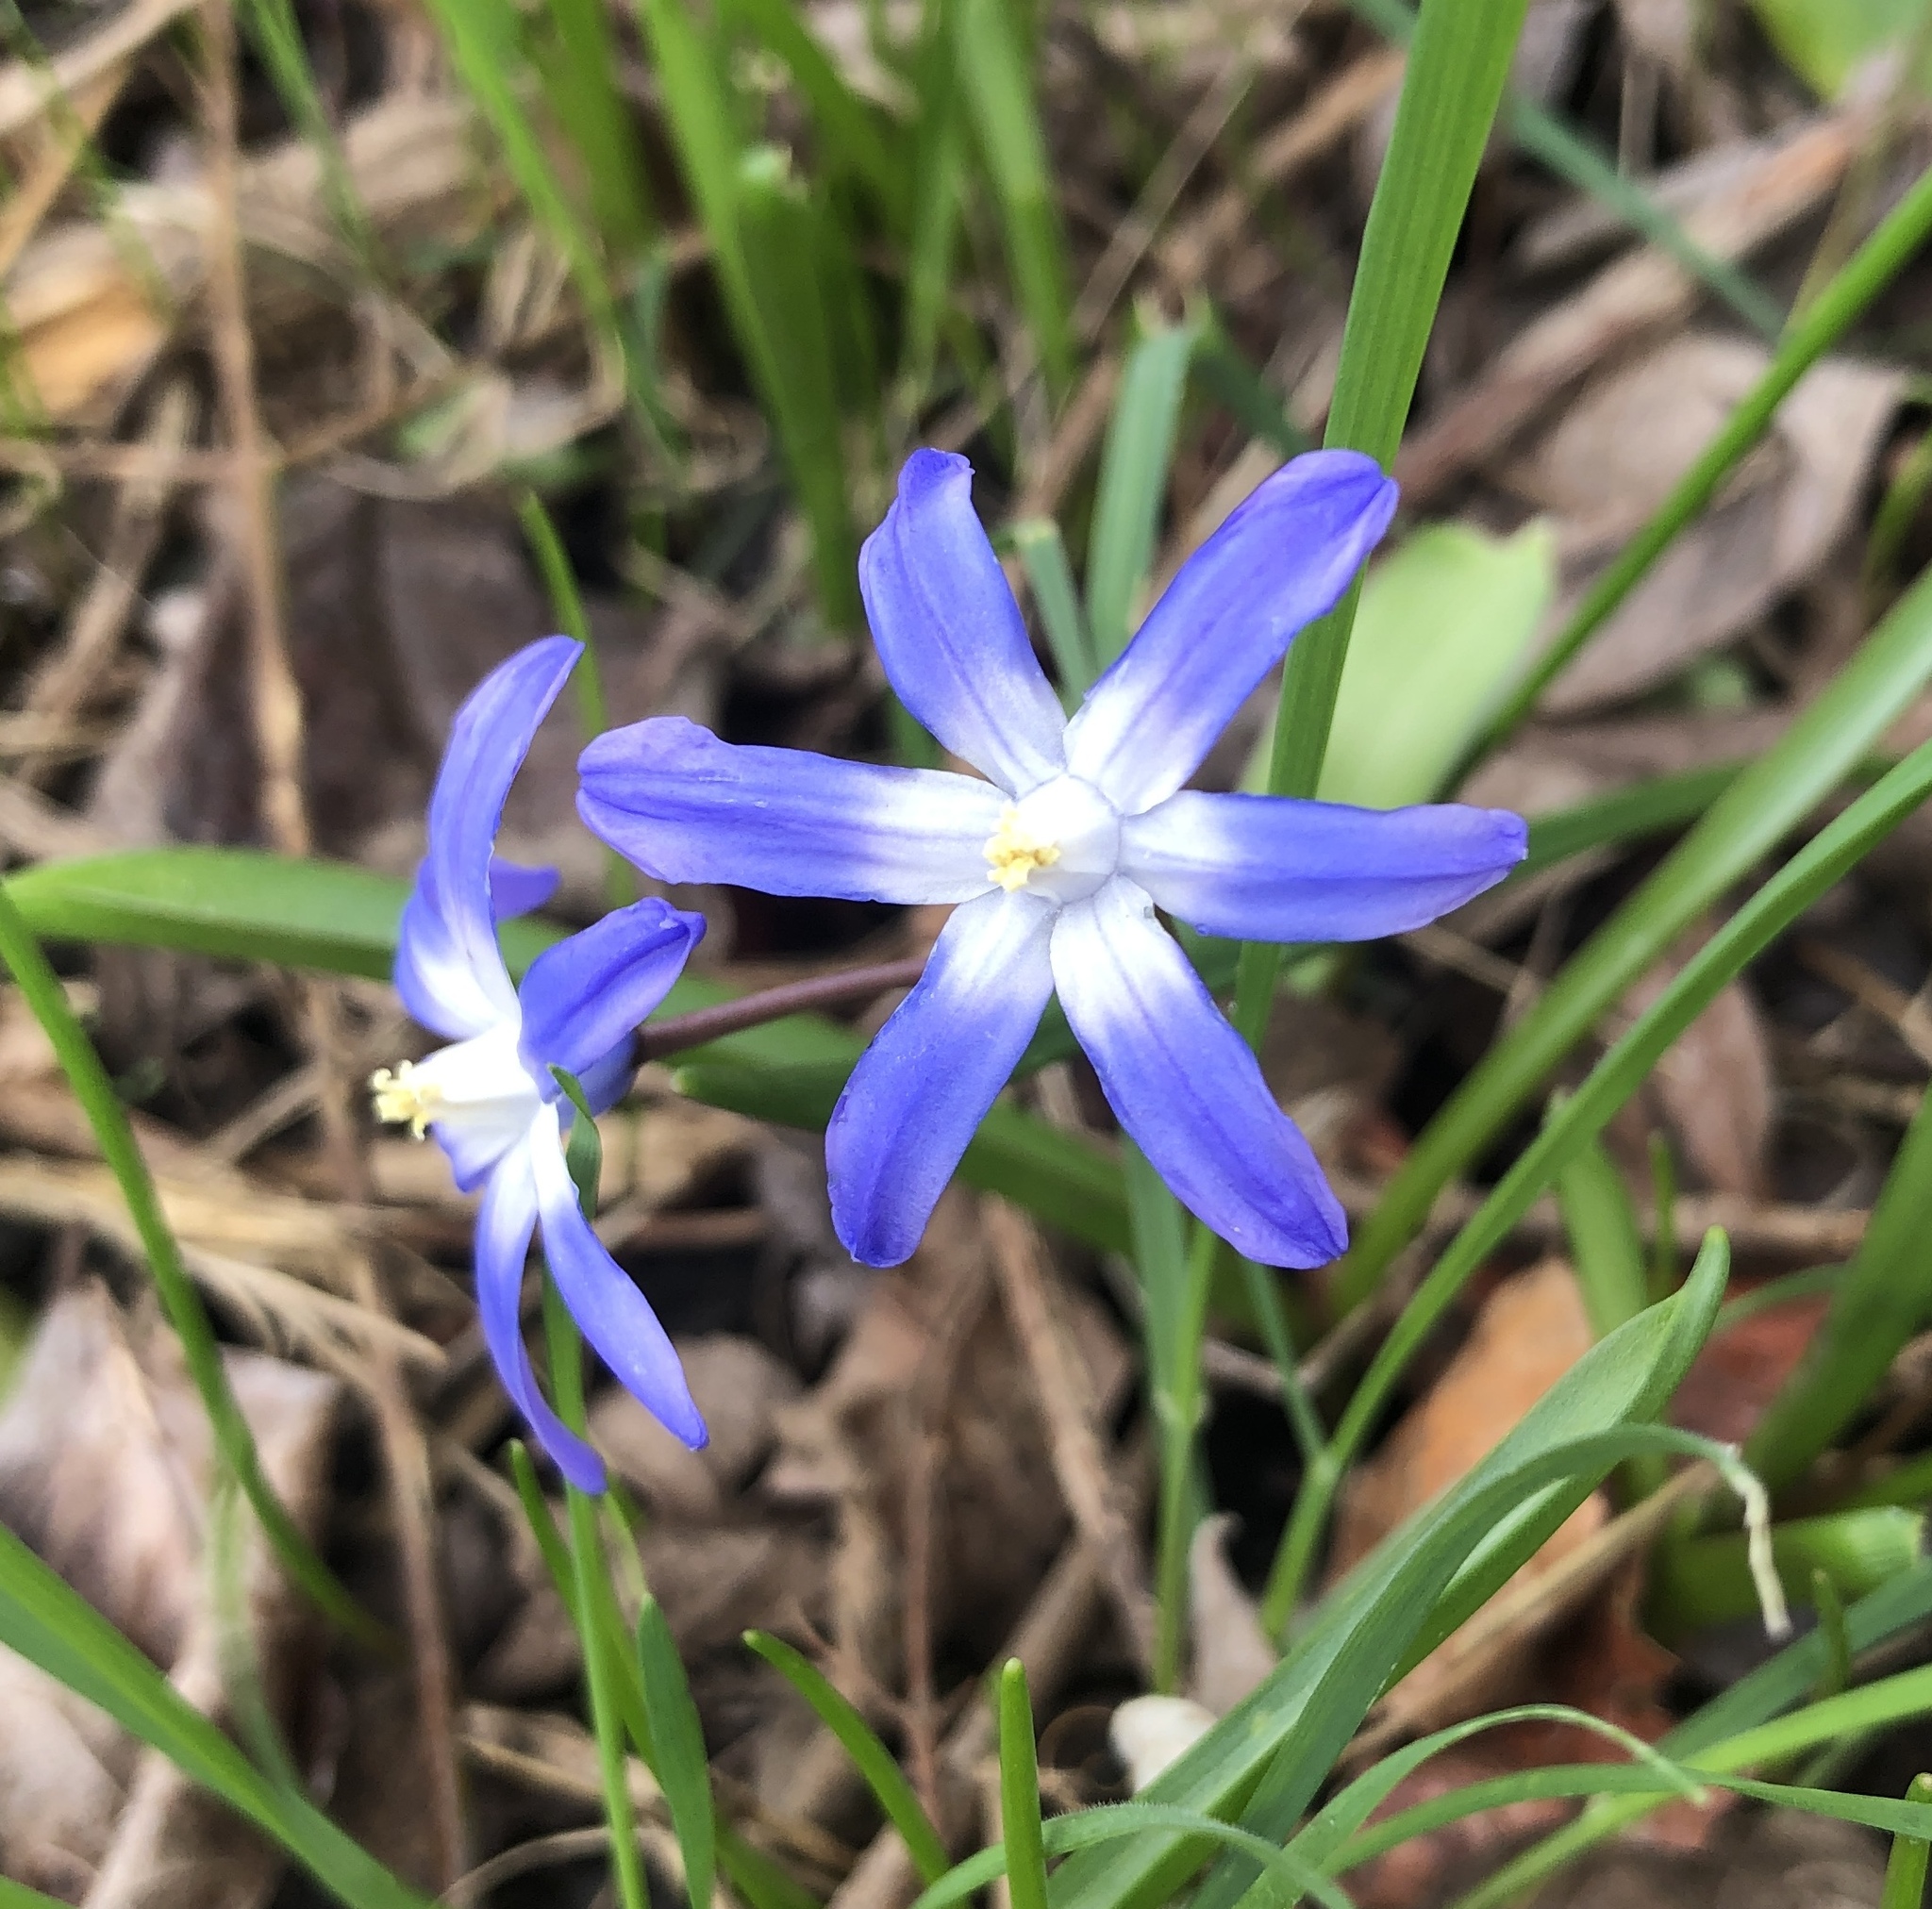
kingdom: Plantae
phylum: Tracheophyta
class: Liliopsida
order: Asparagales
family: Asparagaceae
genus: Scilla
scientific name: Scilla luciliae
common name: Boissier's glory-of-the-snow
